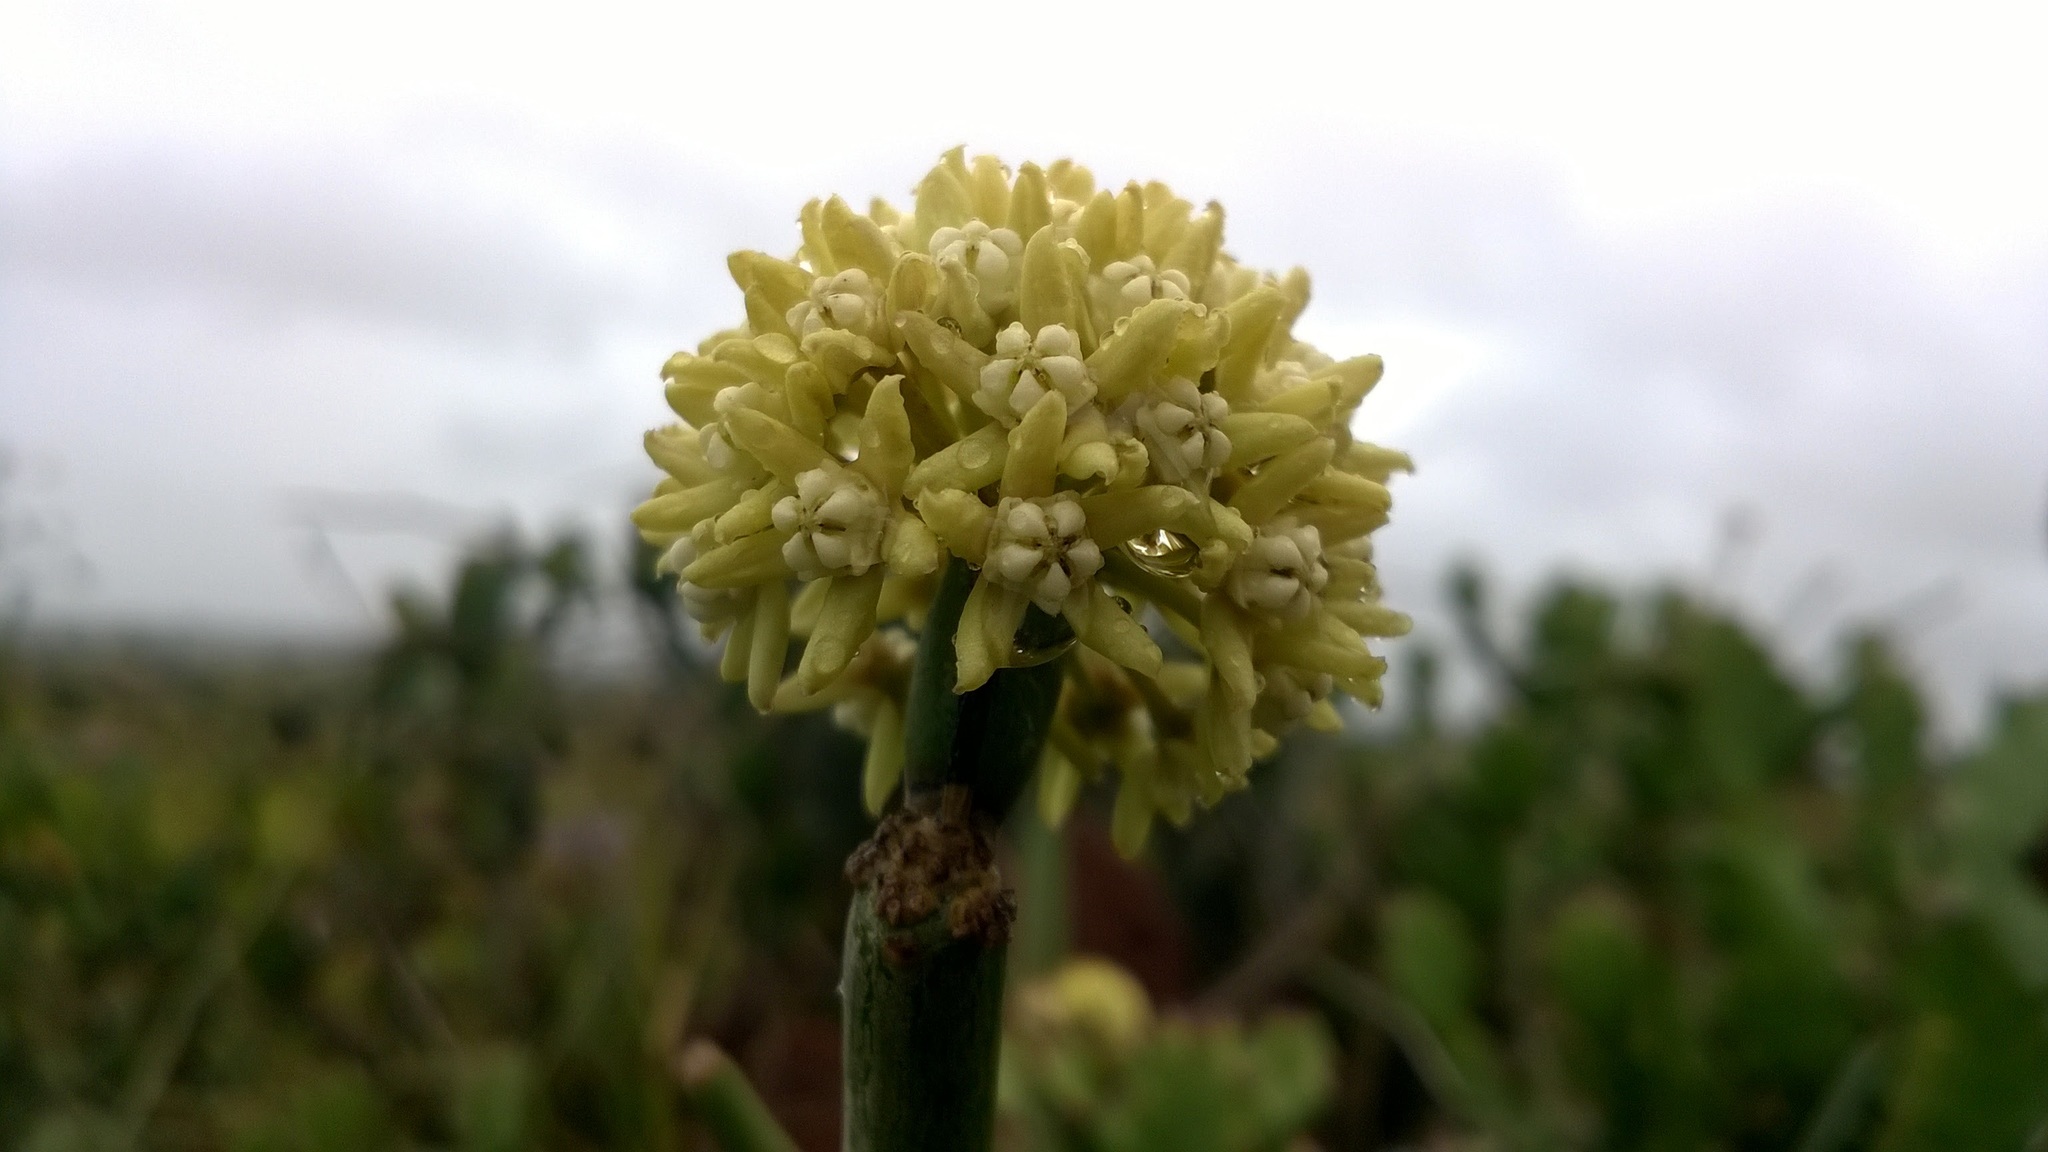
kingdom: Plantae
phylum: Tracheophyta
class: Magnoliopsida
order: Gentianales
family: Apocynaceae
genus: Cynanchum
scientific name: Cynanchum viminale
